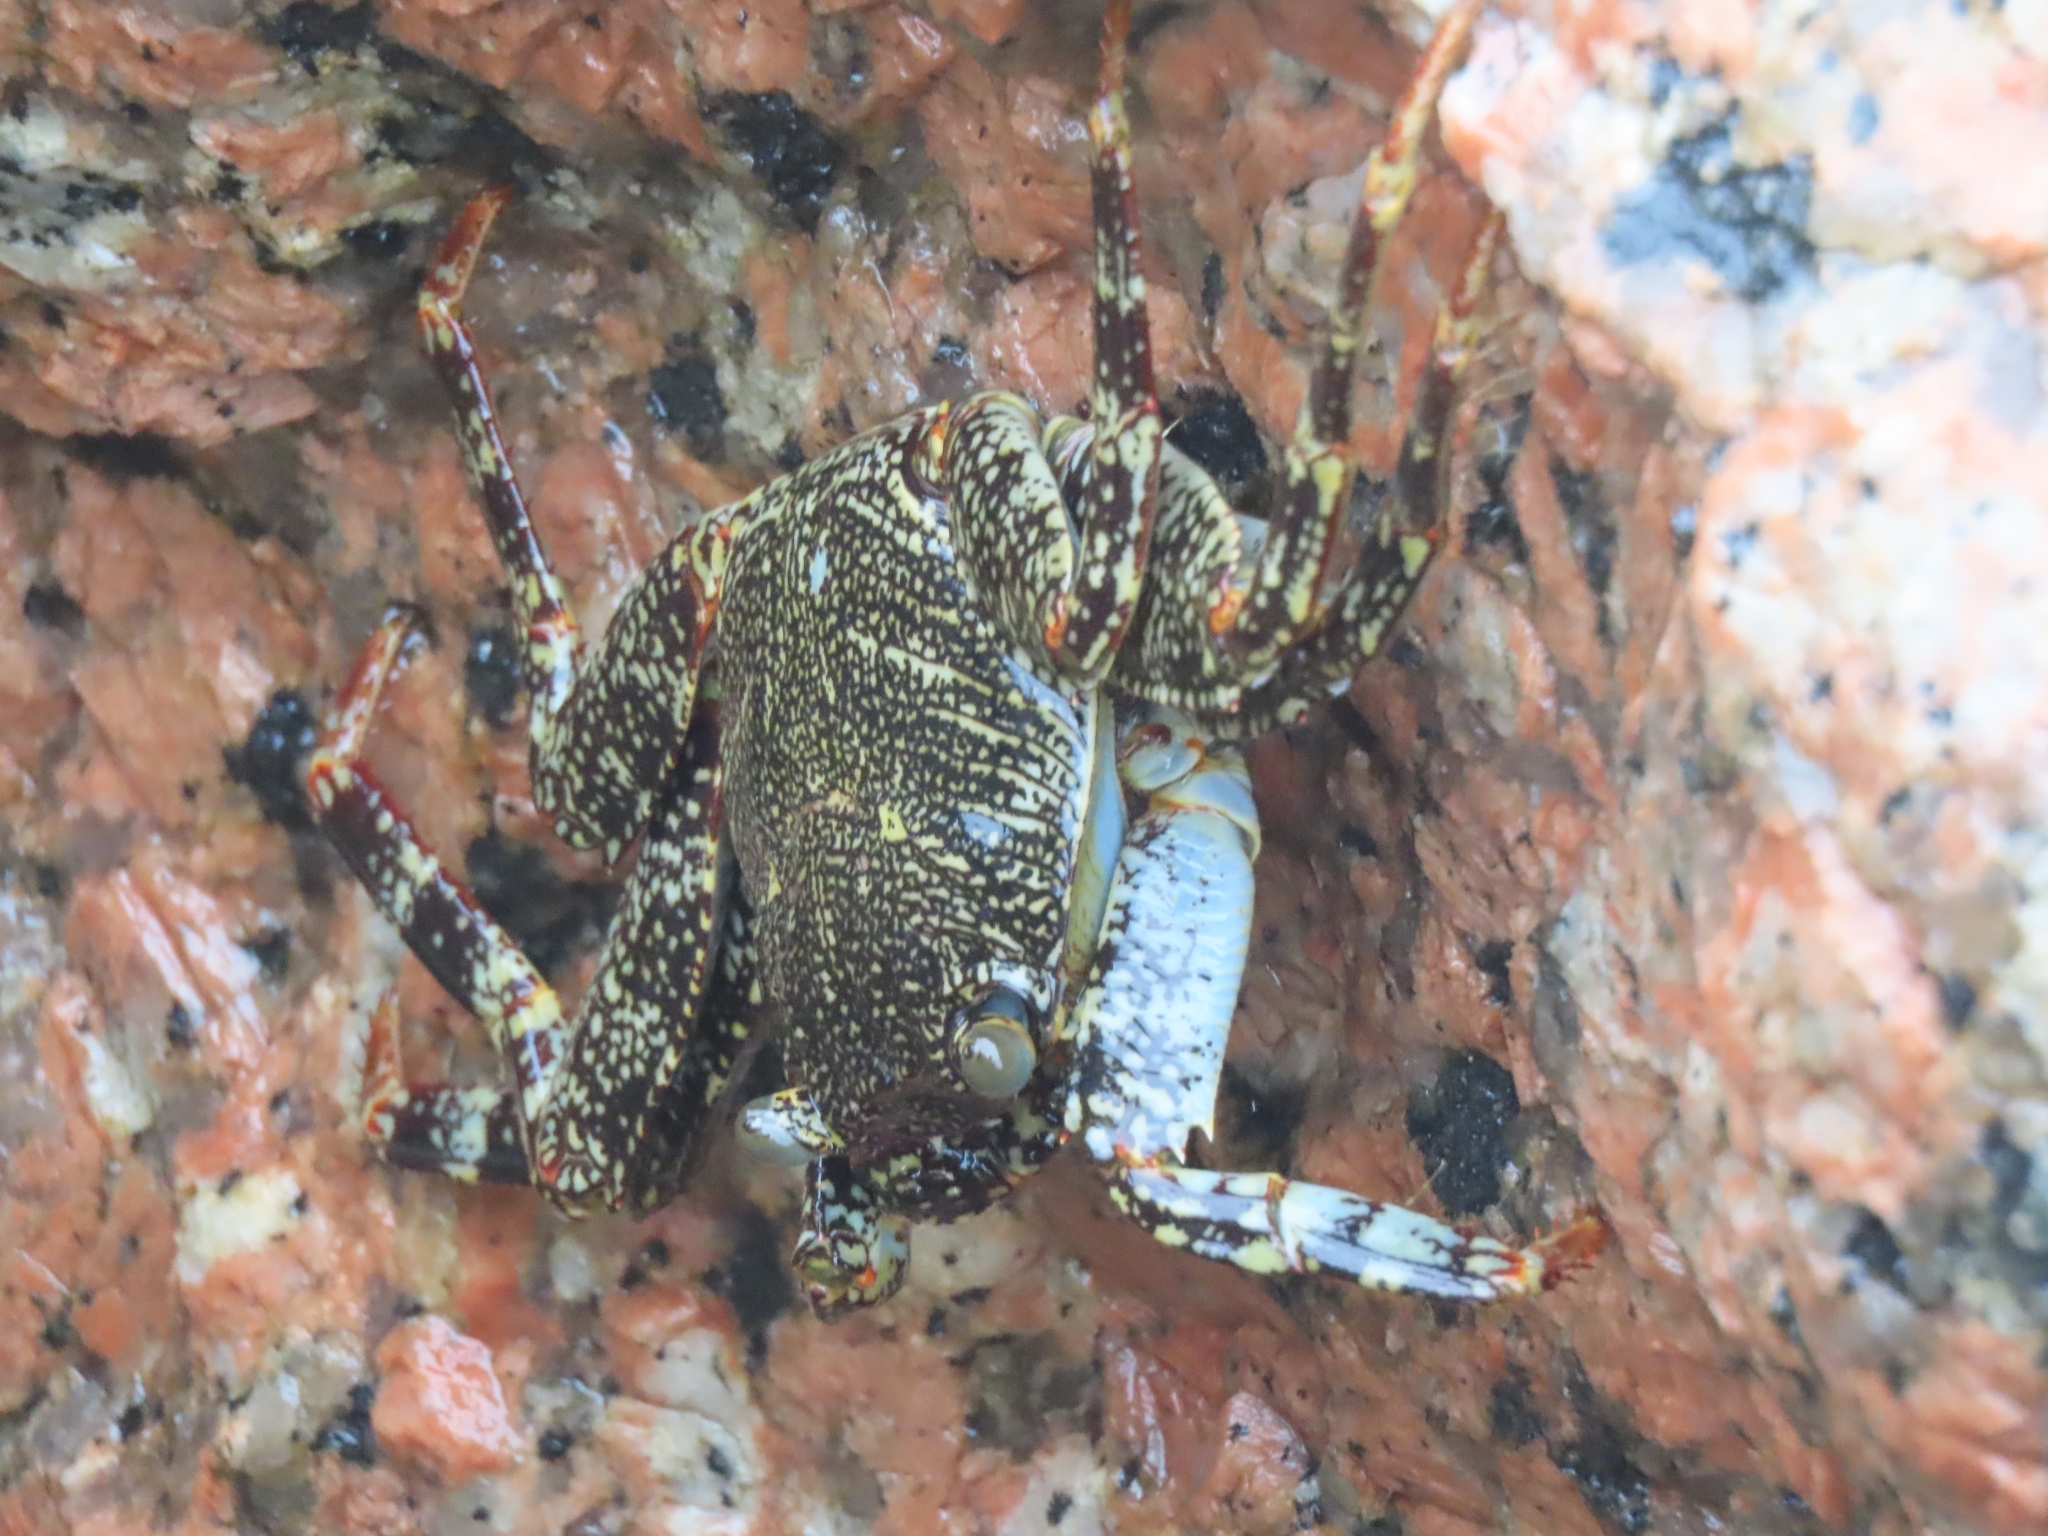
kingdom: Animalia
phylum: Arthropoda
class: Malacostraca
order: Decapoda
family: Grapsidae
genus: Grapsus
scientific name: Grapsus grapsus
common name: Sally lightfoot
